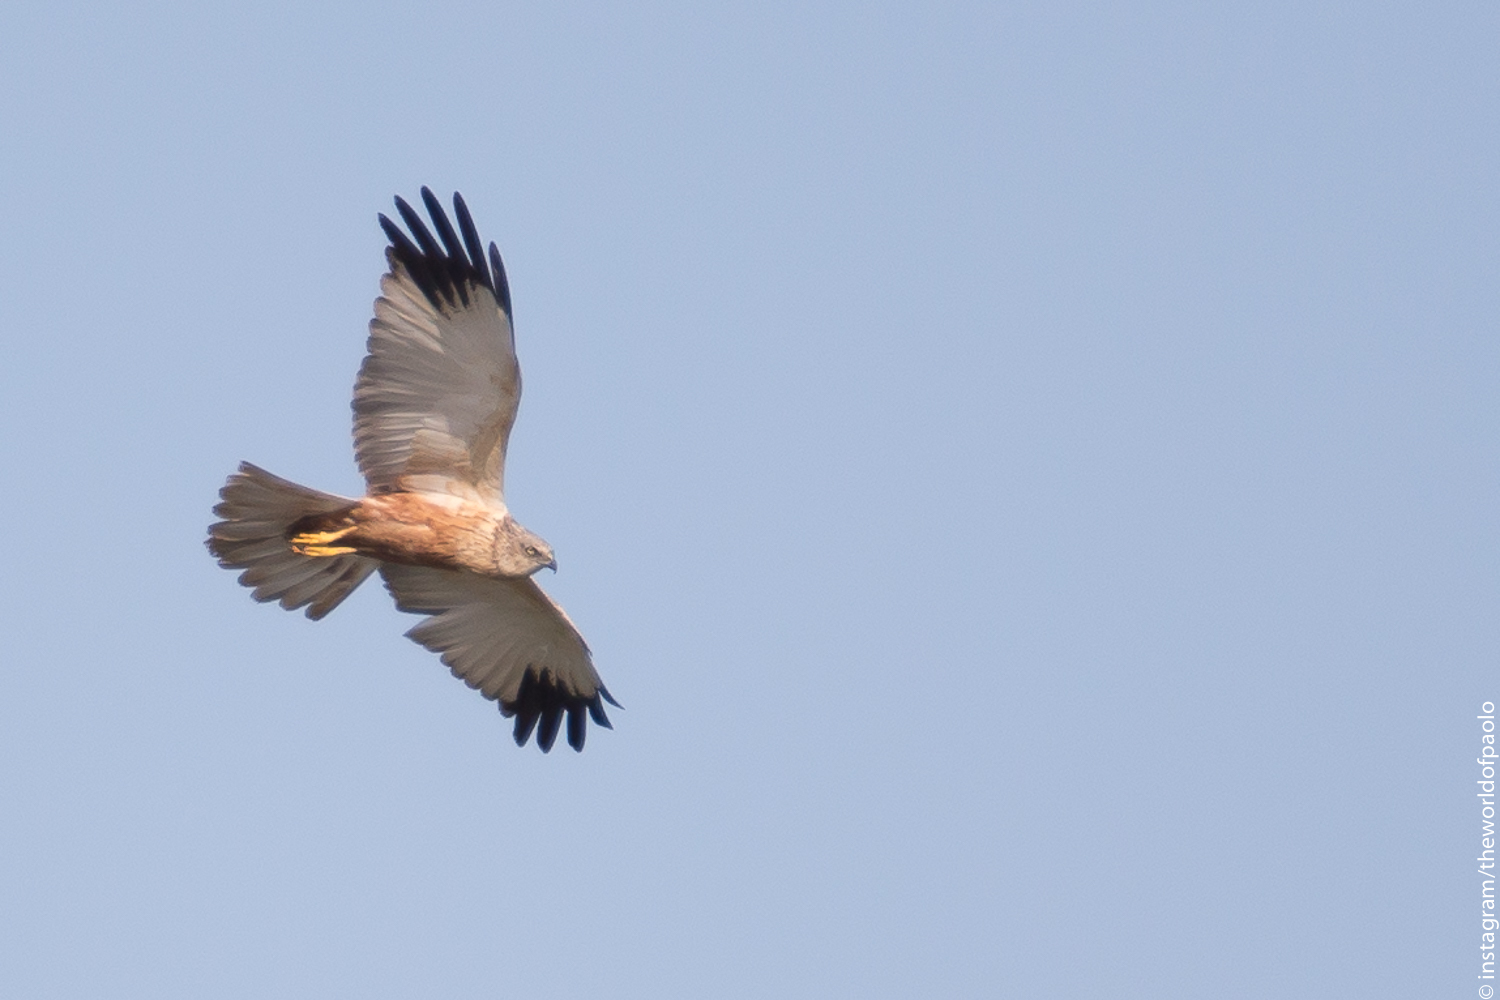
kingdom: Animalia
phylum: Chordata
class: Aves
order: Accipitriformes
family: Accipitridae
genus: Circus
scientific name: Circus aeruginosus
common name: Western marsh harrier
